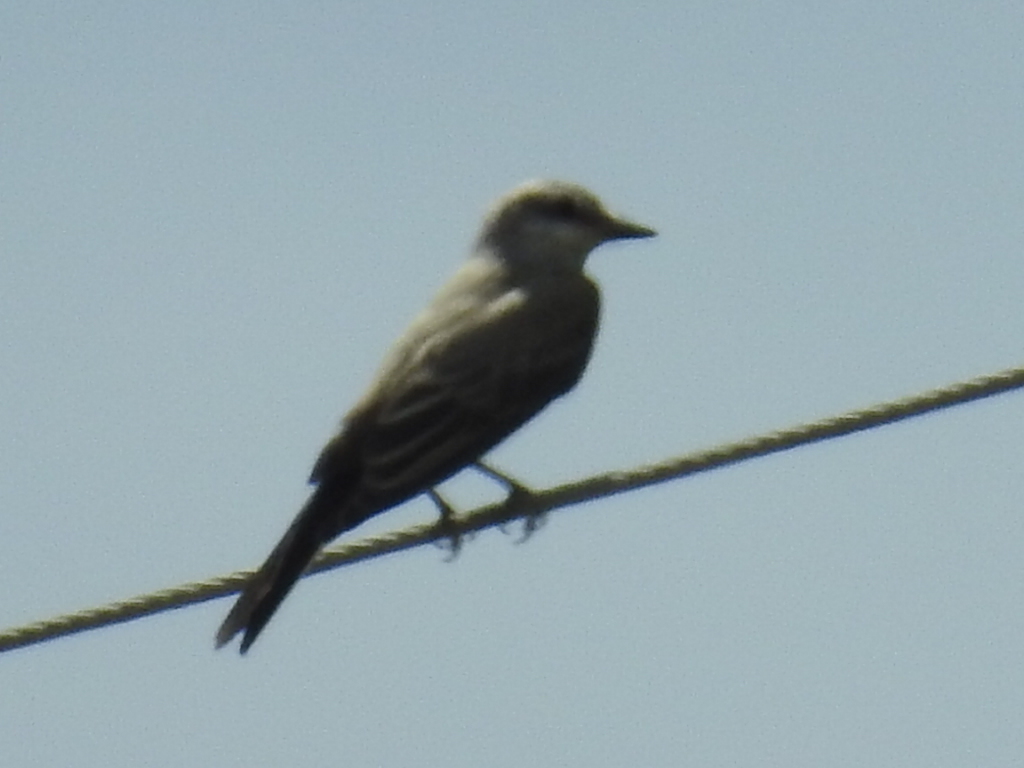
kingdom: Animalia
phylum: Chordata
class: Aves
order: Passeriformes
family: Tyrannidae
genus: Tyrannus
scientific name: Tyrannus verticalis
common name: Western kingbird
